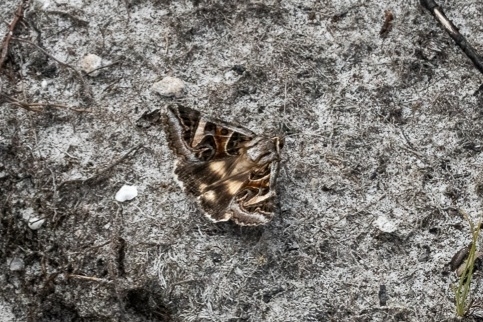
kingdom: Animalia
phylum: Arthropoda
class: Insecta
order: Lepidoptera
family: Erebidae
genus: Cerocala
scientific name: Cerocala vermiculosa
